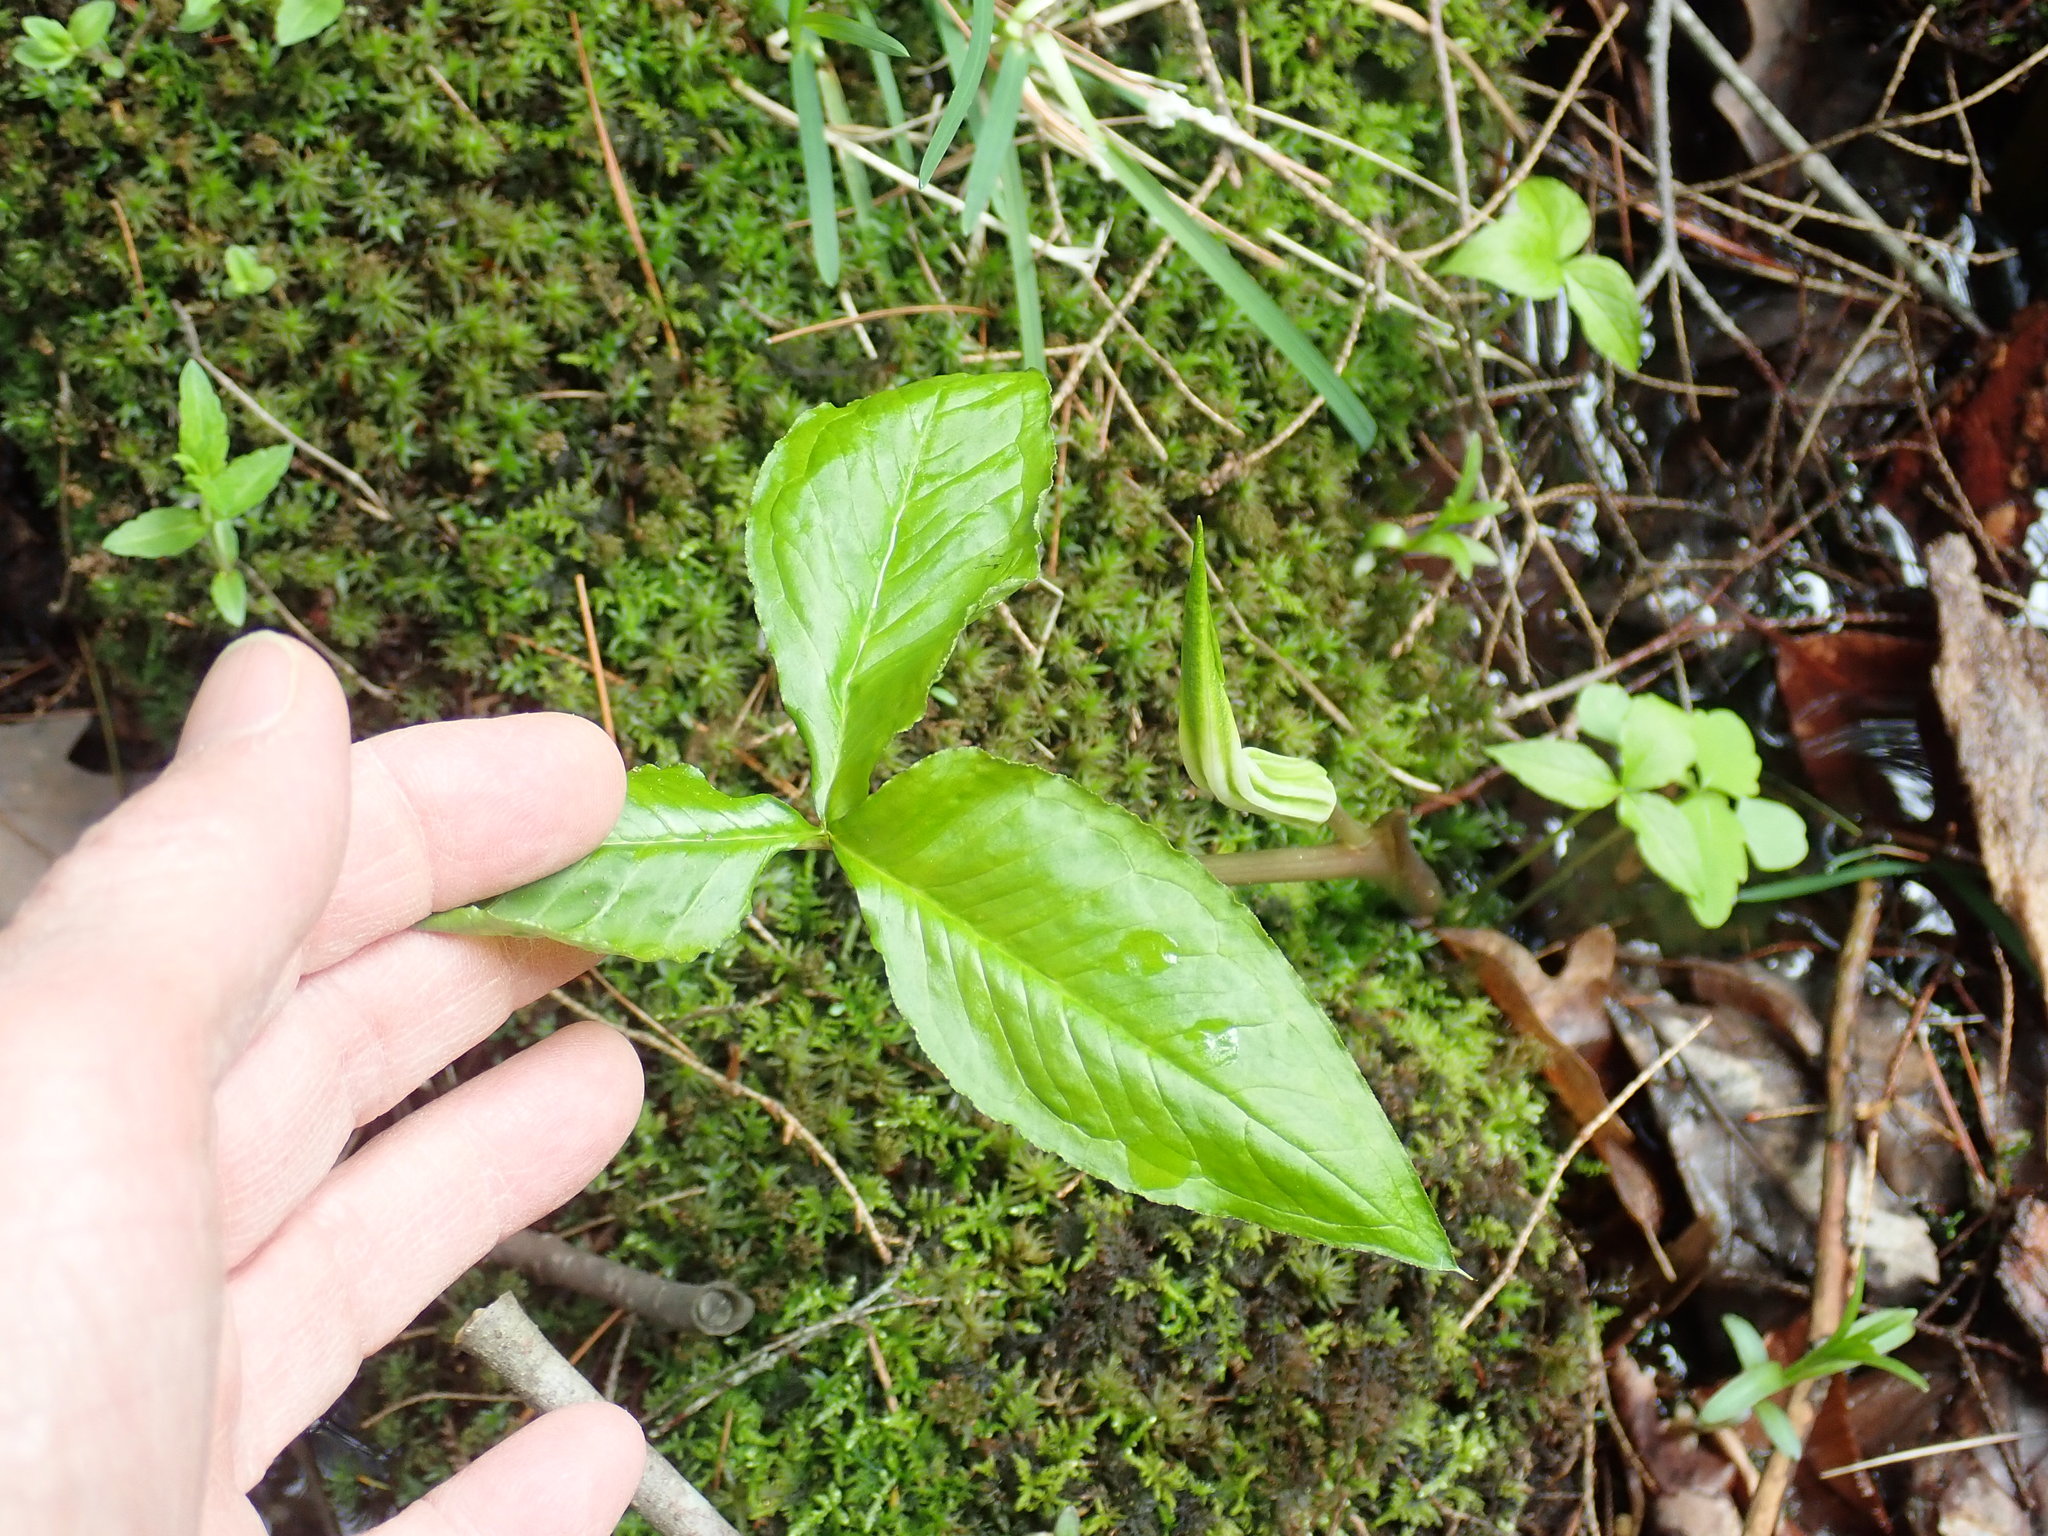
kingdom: Plantae
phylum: Tracheophyta
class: Liliopsida
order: Alismatales
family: Araceae
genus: Arisaema
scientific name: Arisaema triphyllum
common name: Jack-in-the-pulpit
